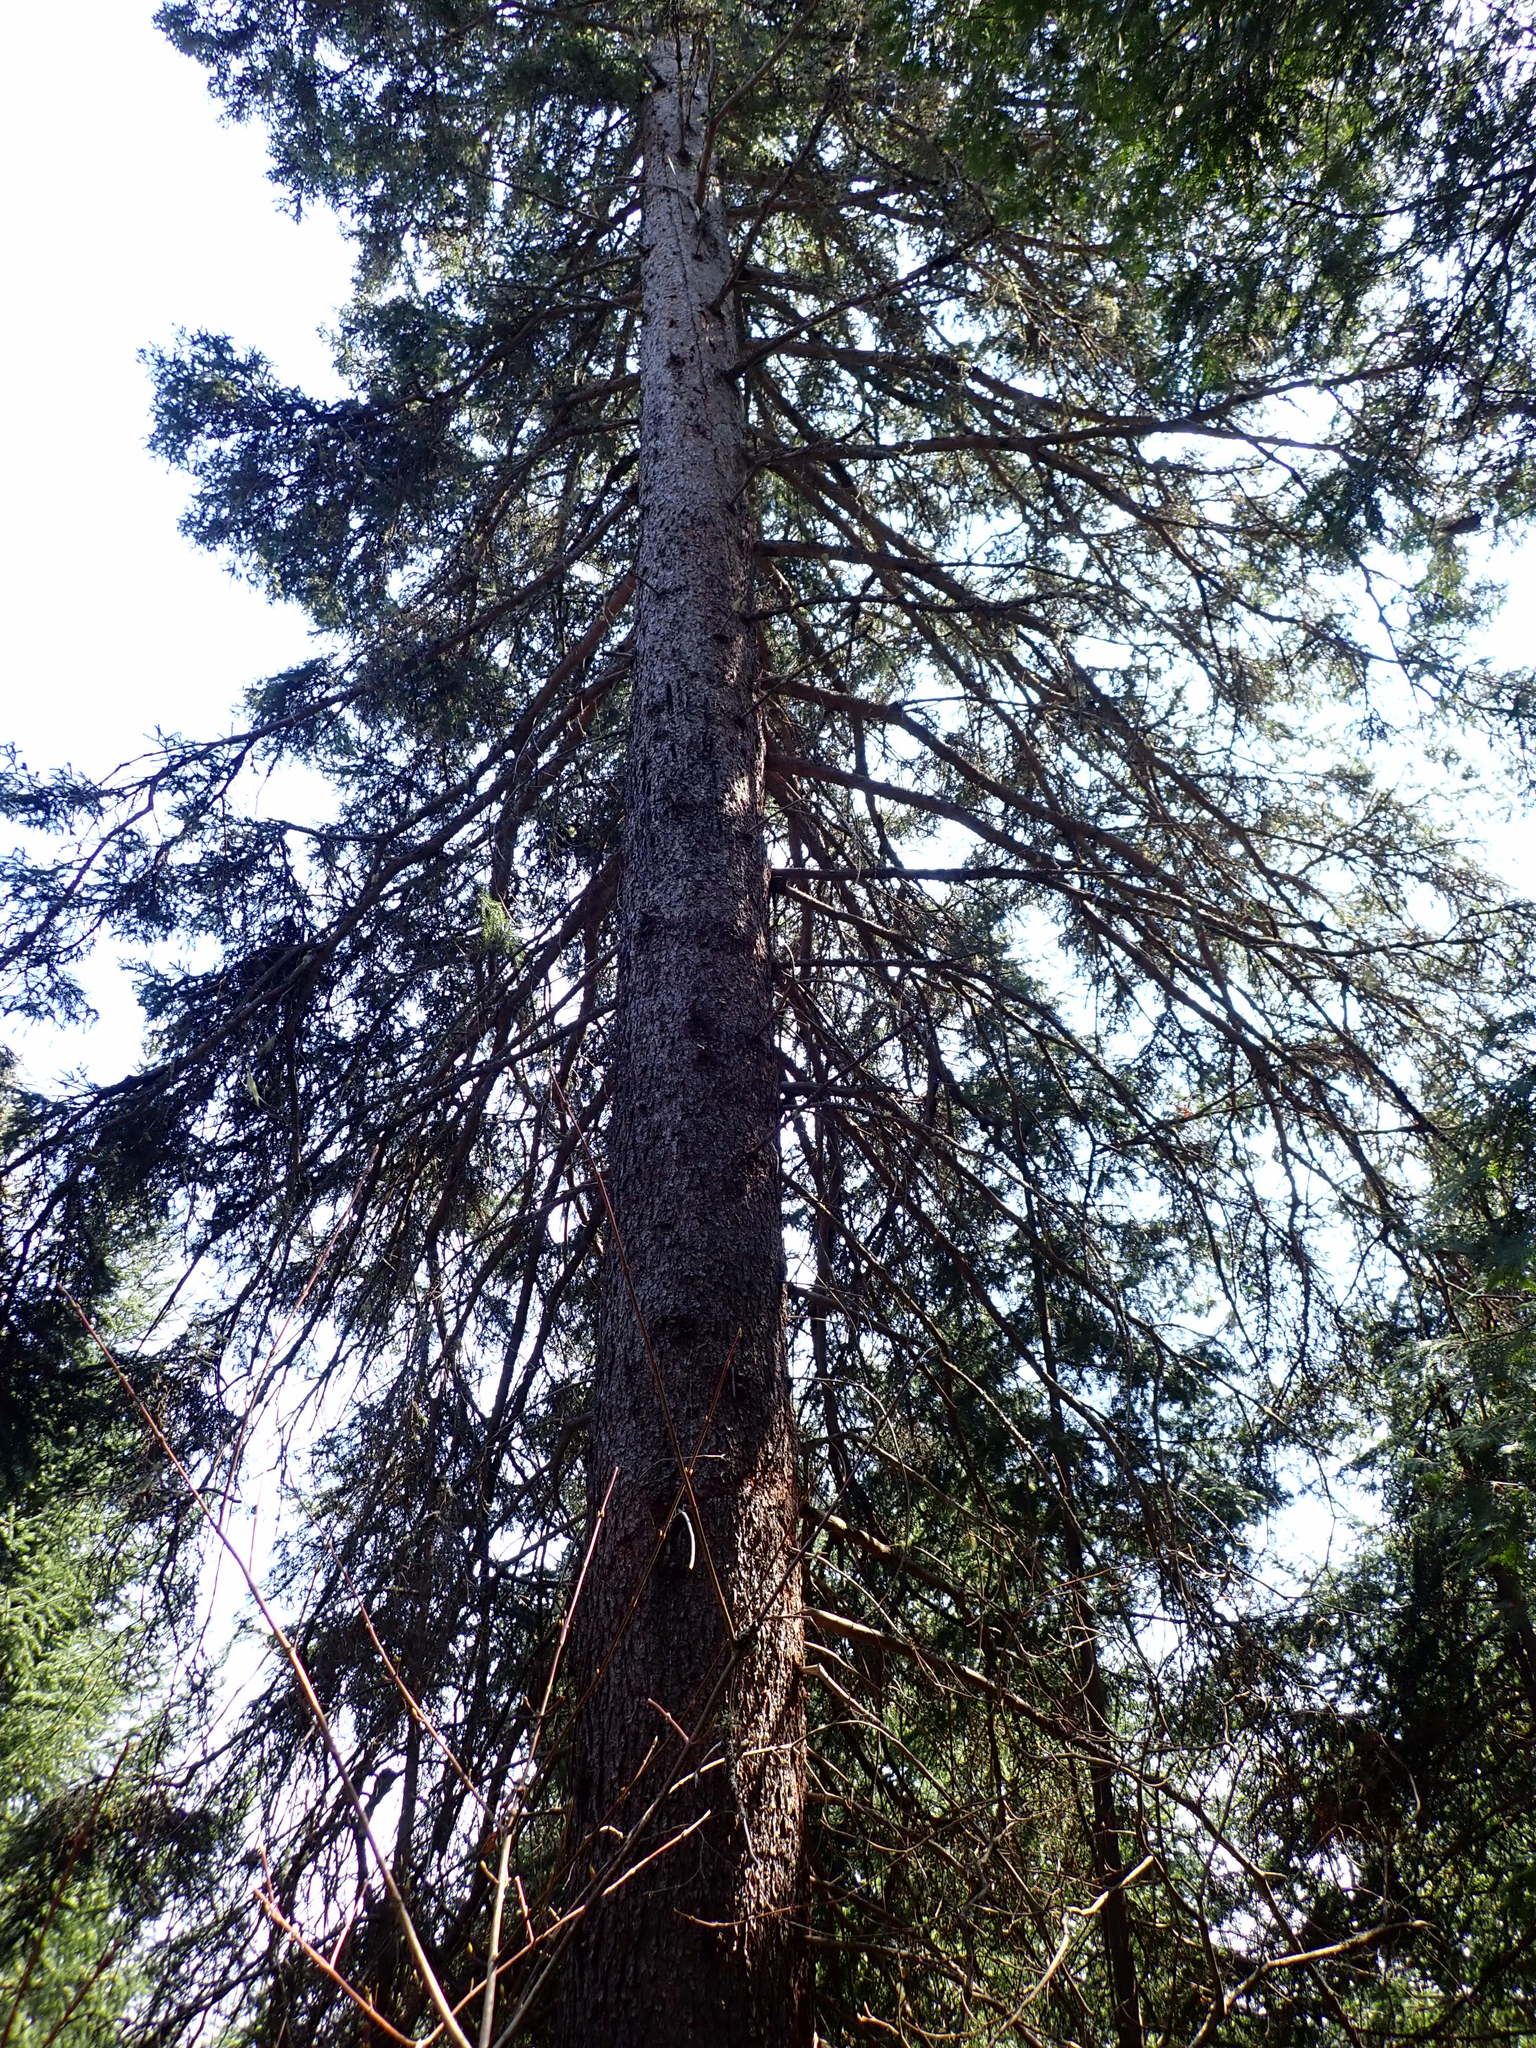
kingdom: Plantae
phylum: Tracheophyta
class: Pinopsida
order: Pinales
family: Pinaceae
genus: Picea
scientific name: Picea glauca
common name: White spruce
